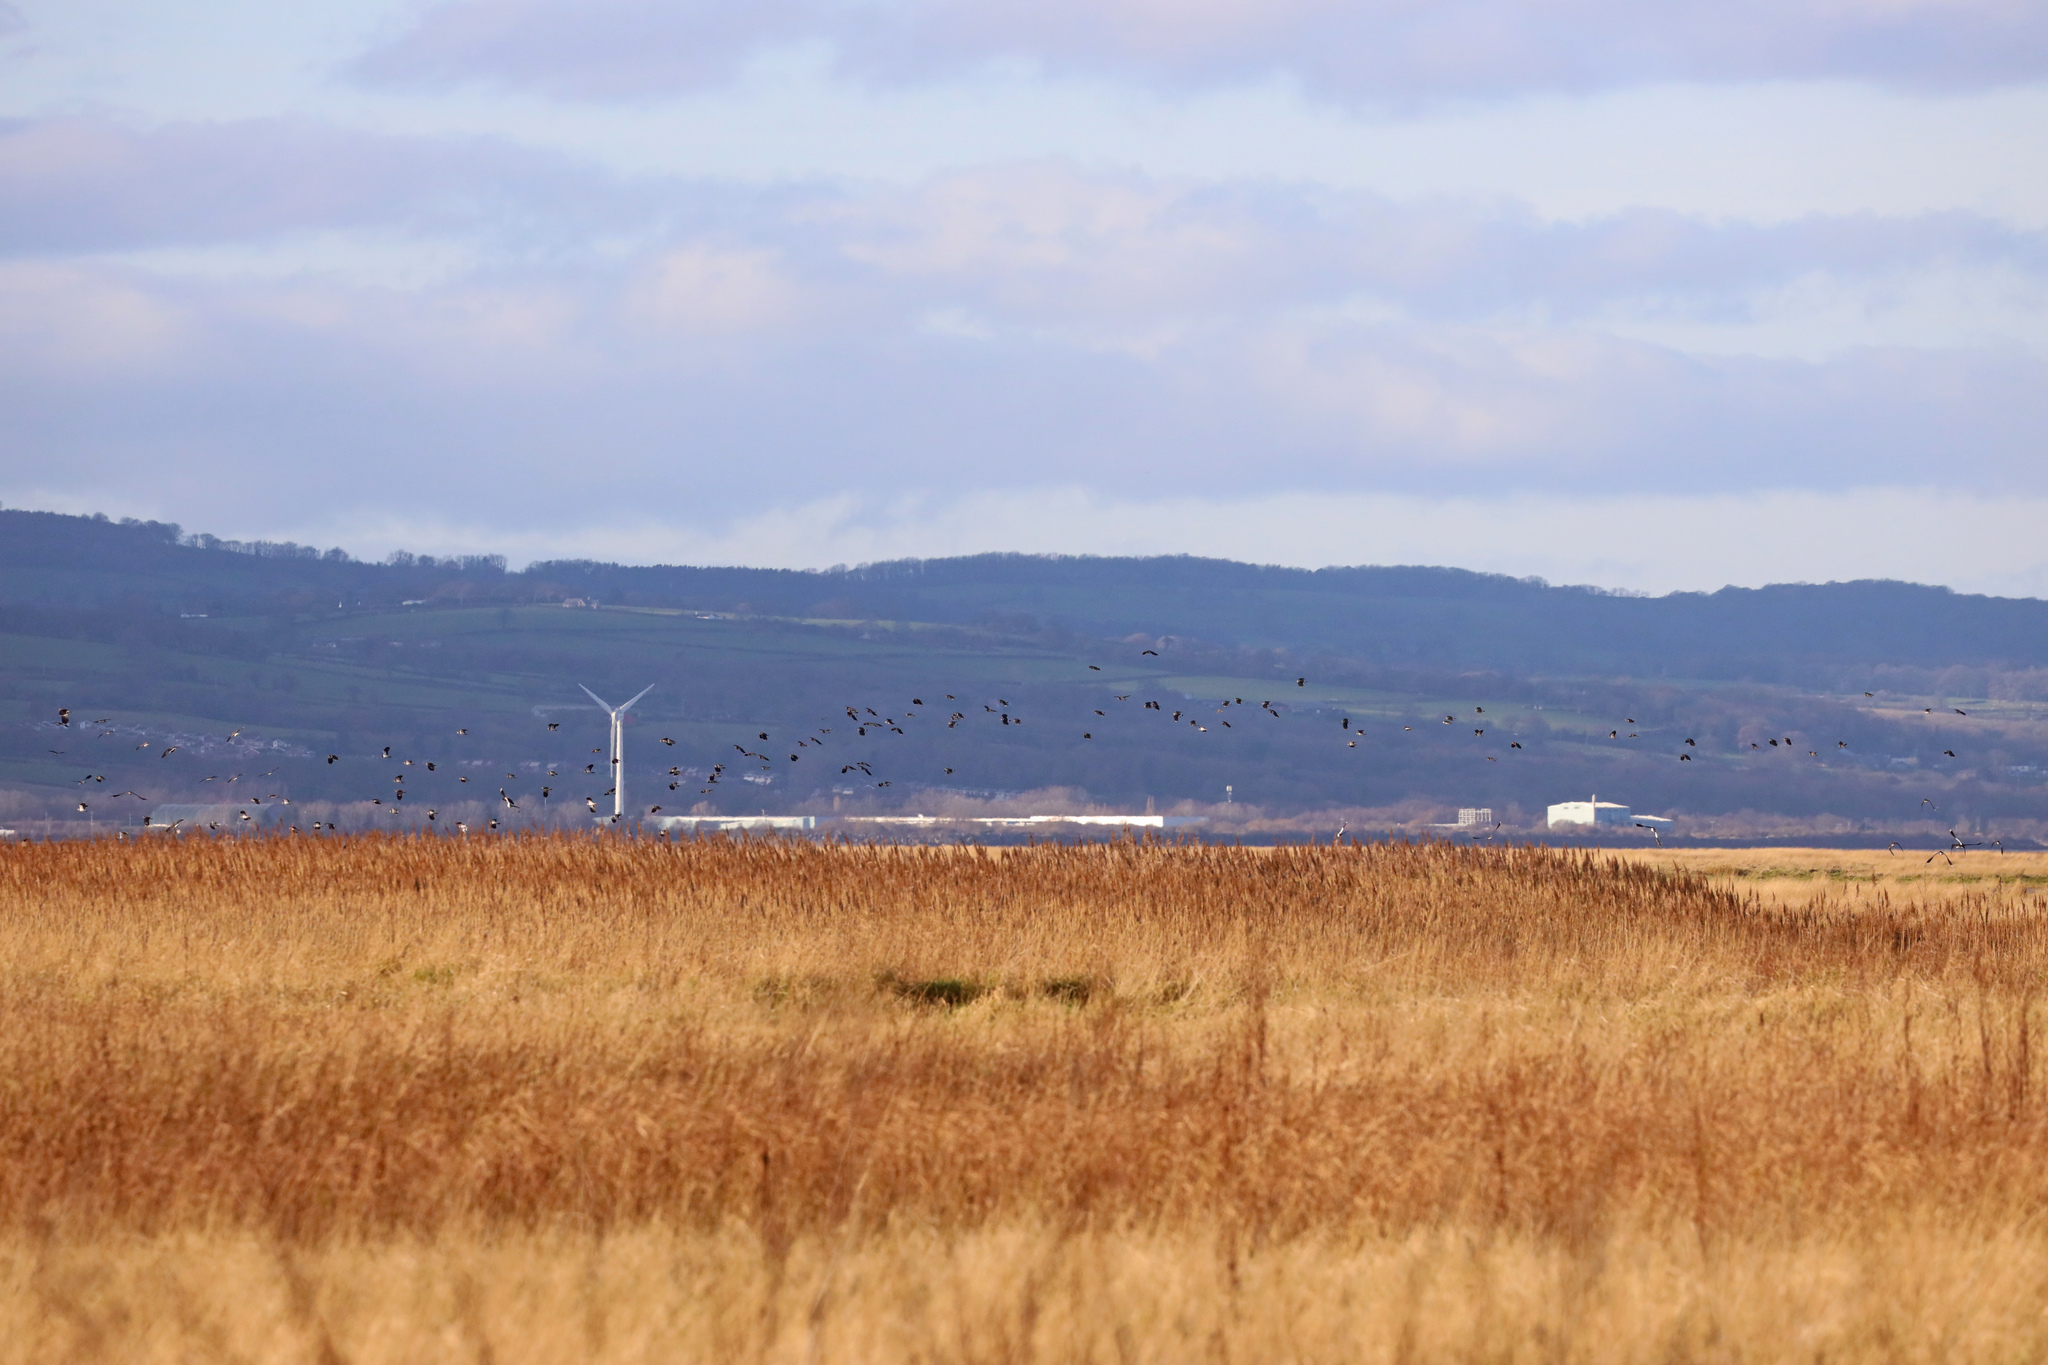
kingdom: Animalia
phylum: Chordata
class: Aves
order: Charadriiformes
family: Charadriidae
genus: Vanellus
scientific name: Vanellus vanellus
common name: Northern lapwing
